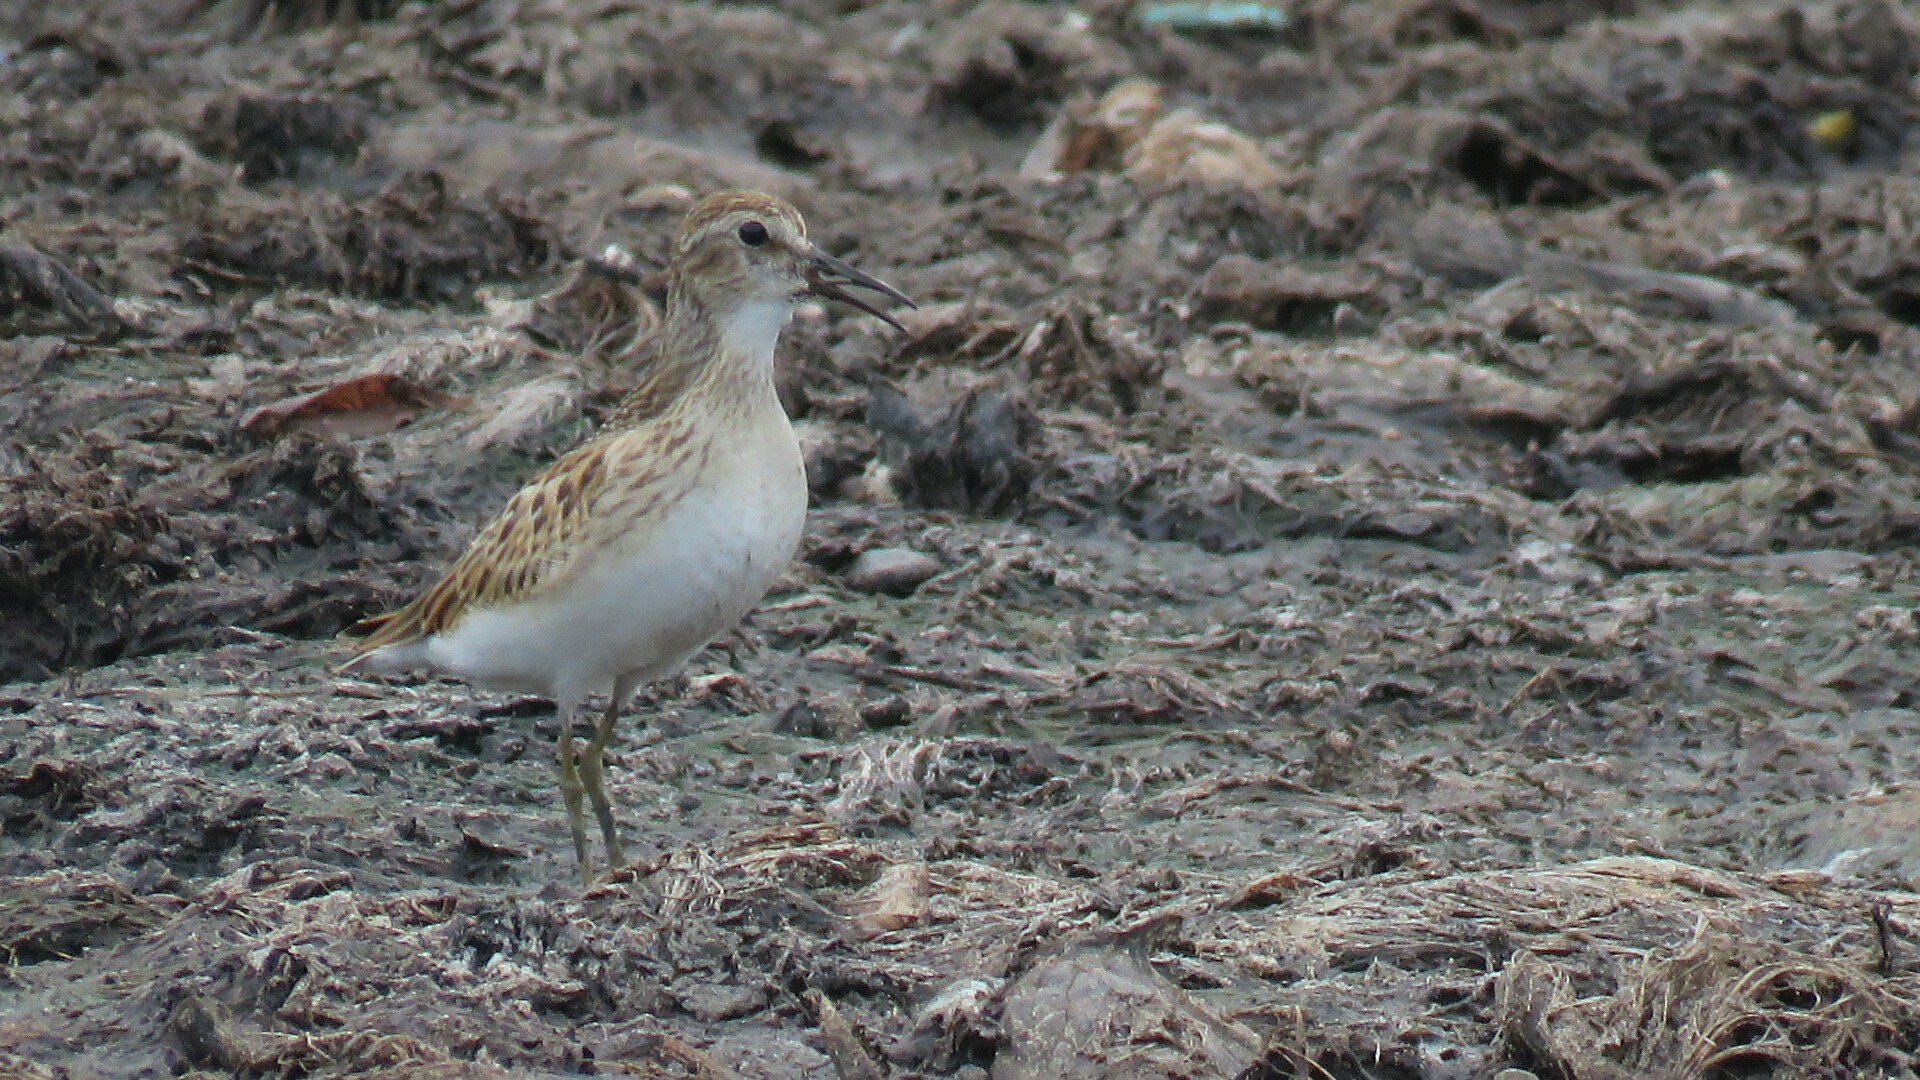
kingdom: Animalia
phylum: Chordata
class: Aves
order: Charadriiformes
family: Scolopacidae
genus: Calidris
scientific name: Calidris minutilla
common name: Least sandpiper
